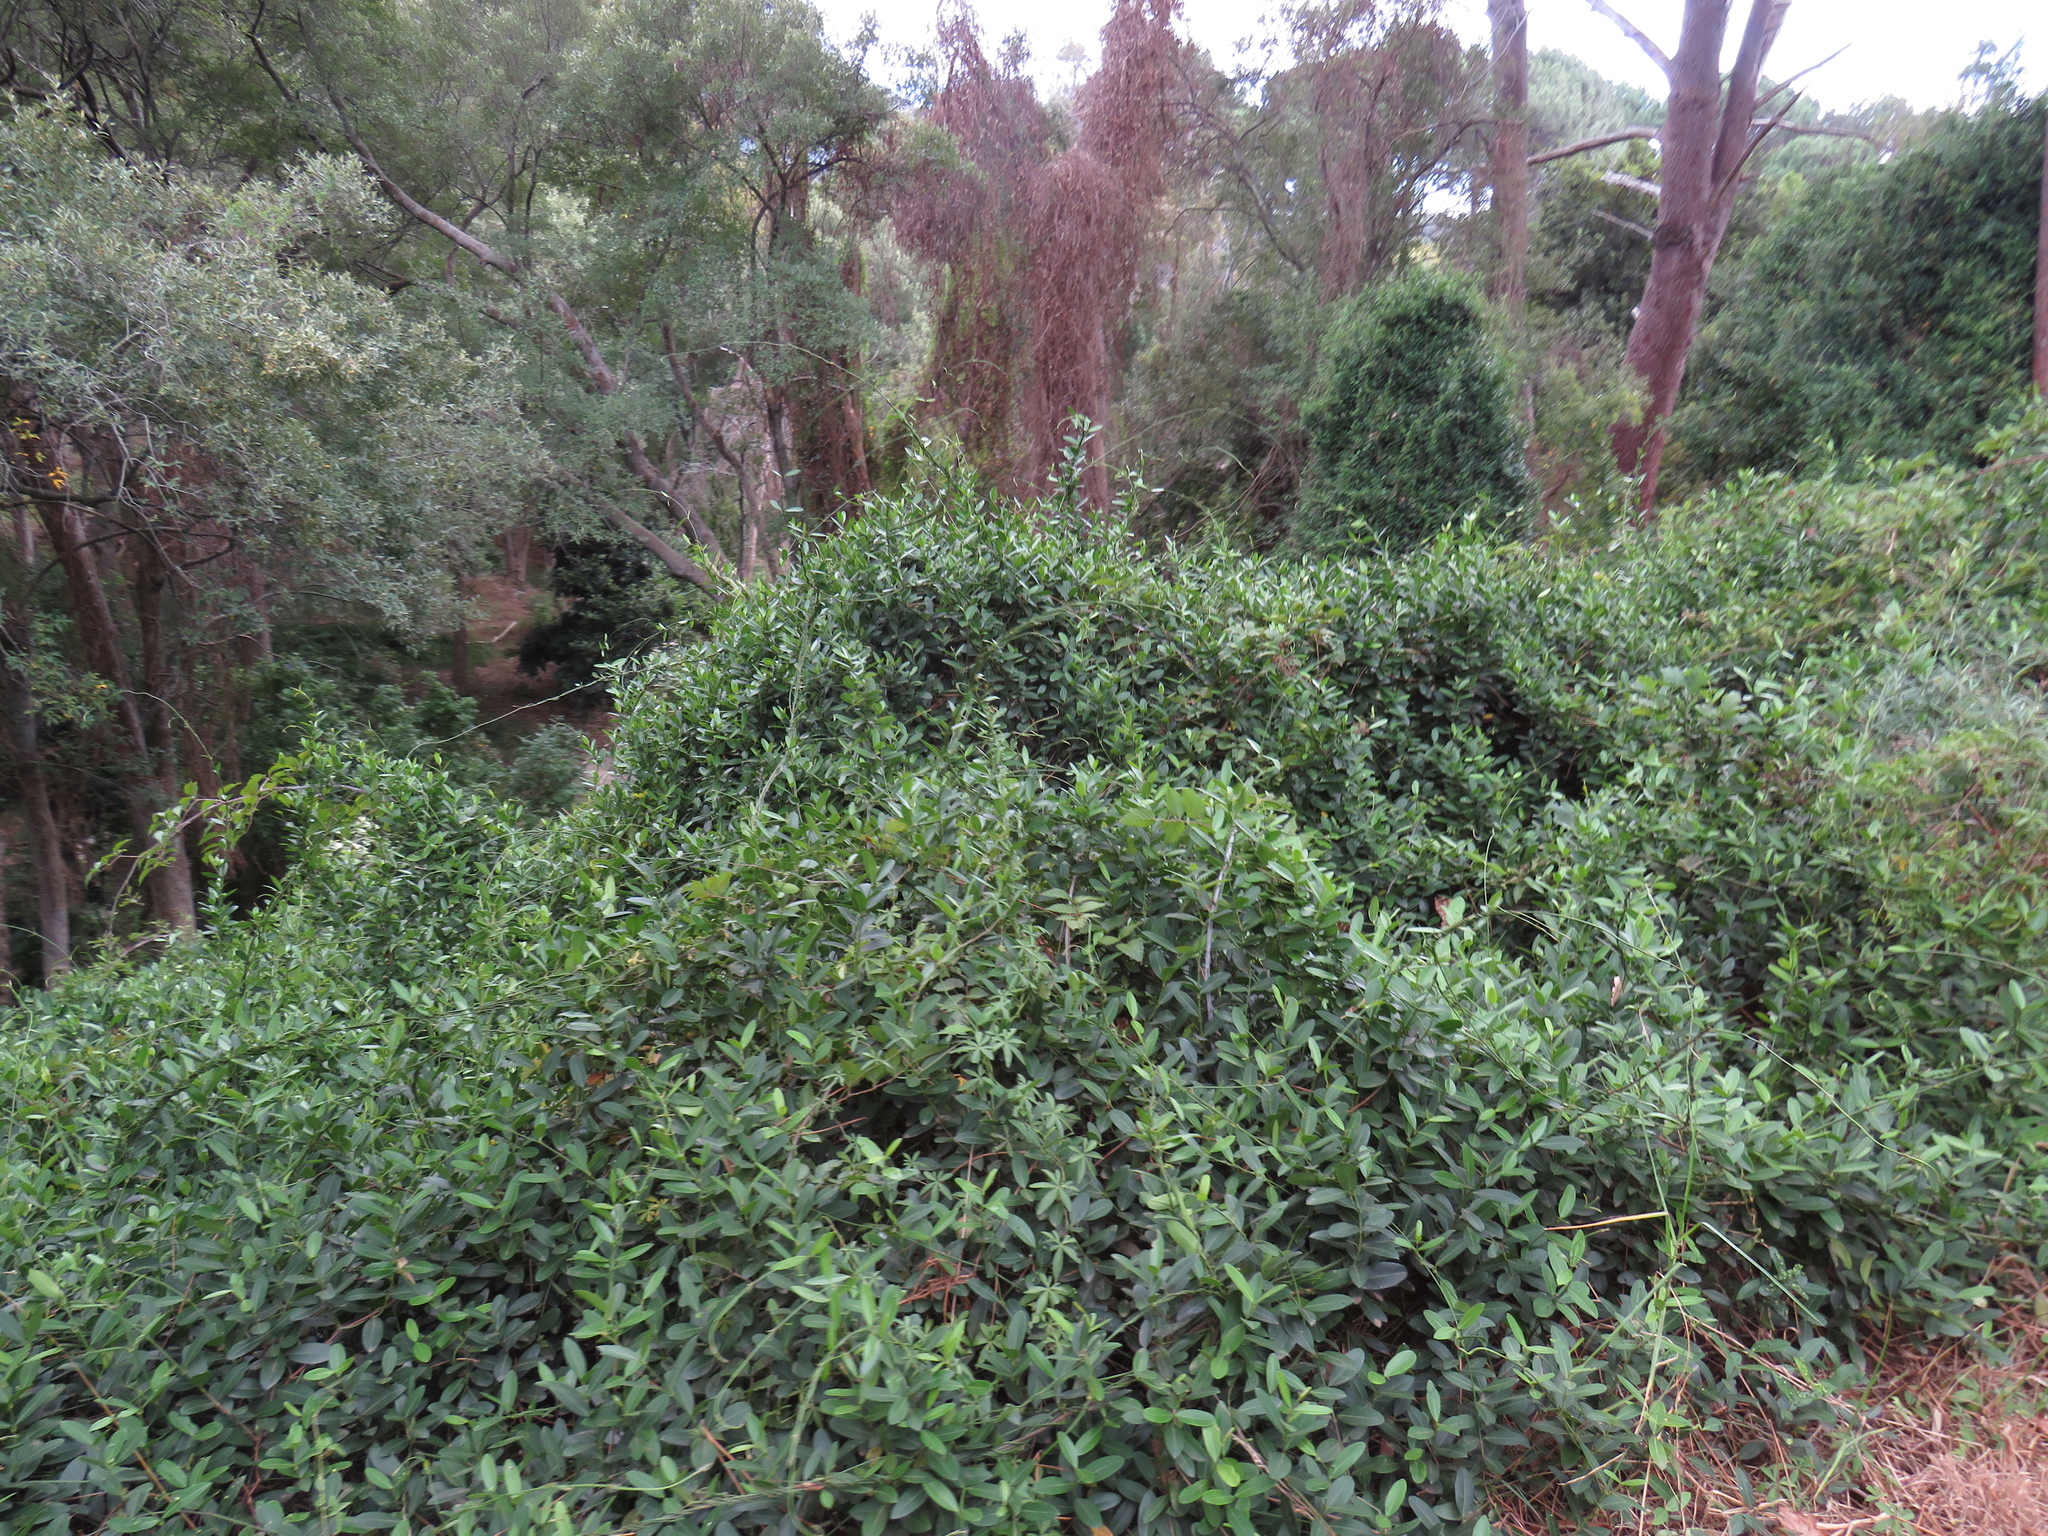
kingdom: Plantae
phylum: Tracheophyta
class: Magnoliopsida
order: Gentianales
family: Apocynaceae
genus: Secamone
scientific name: Secamone alpini
